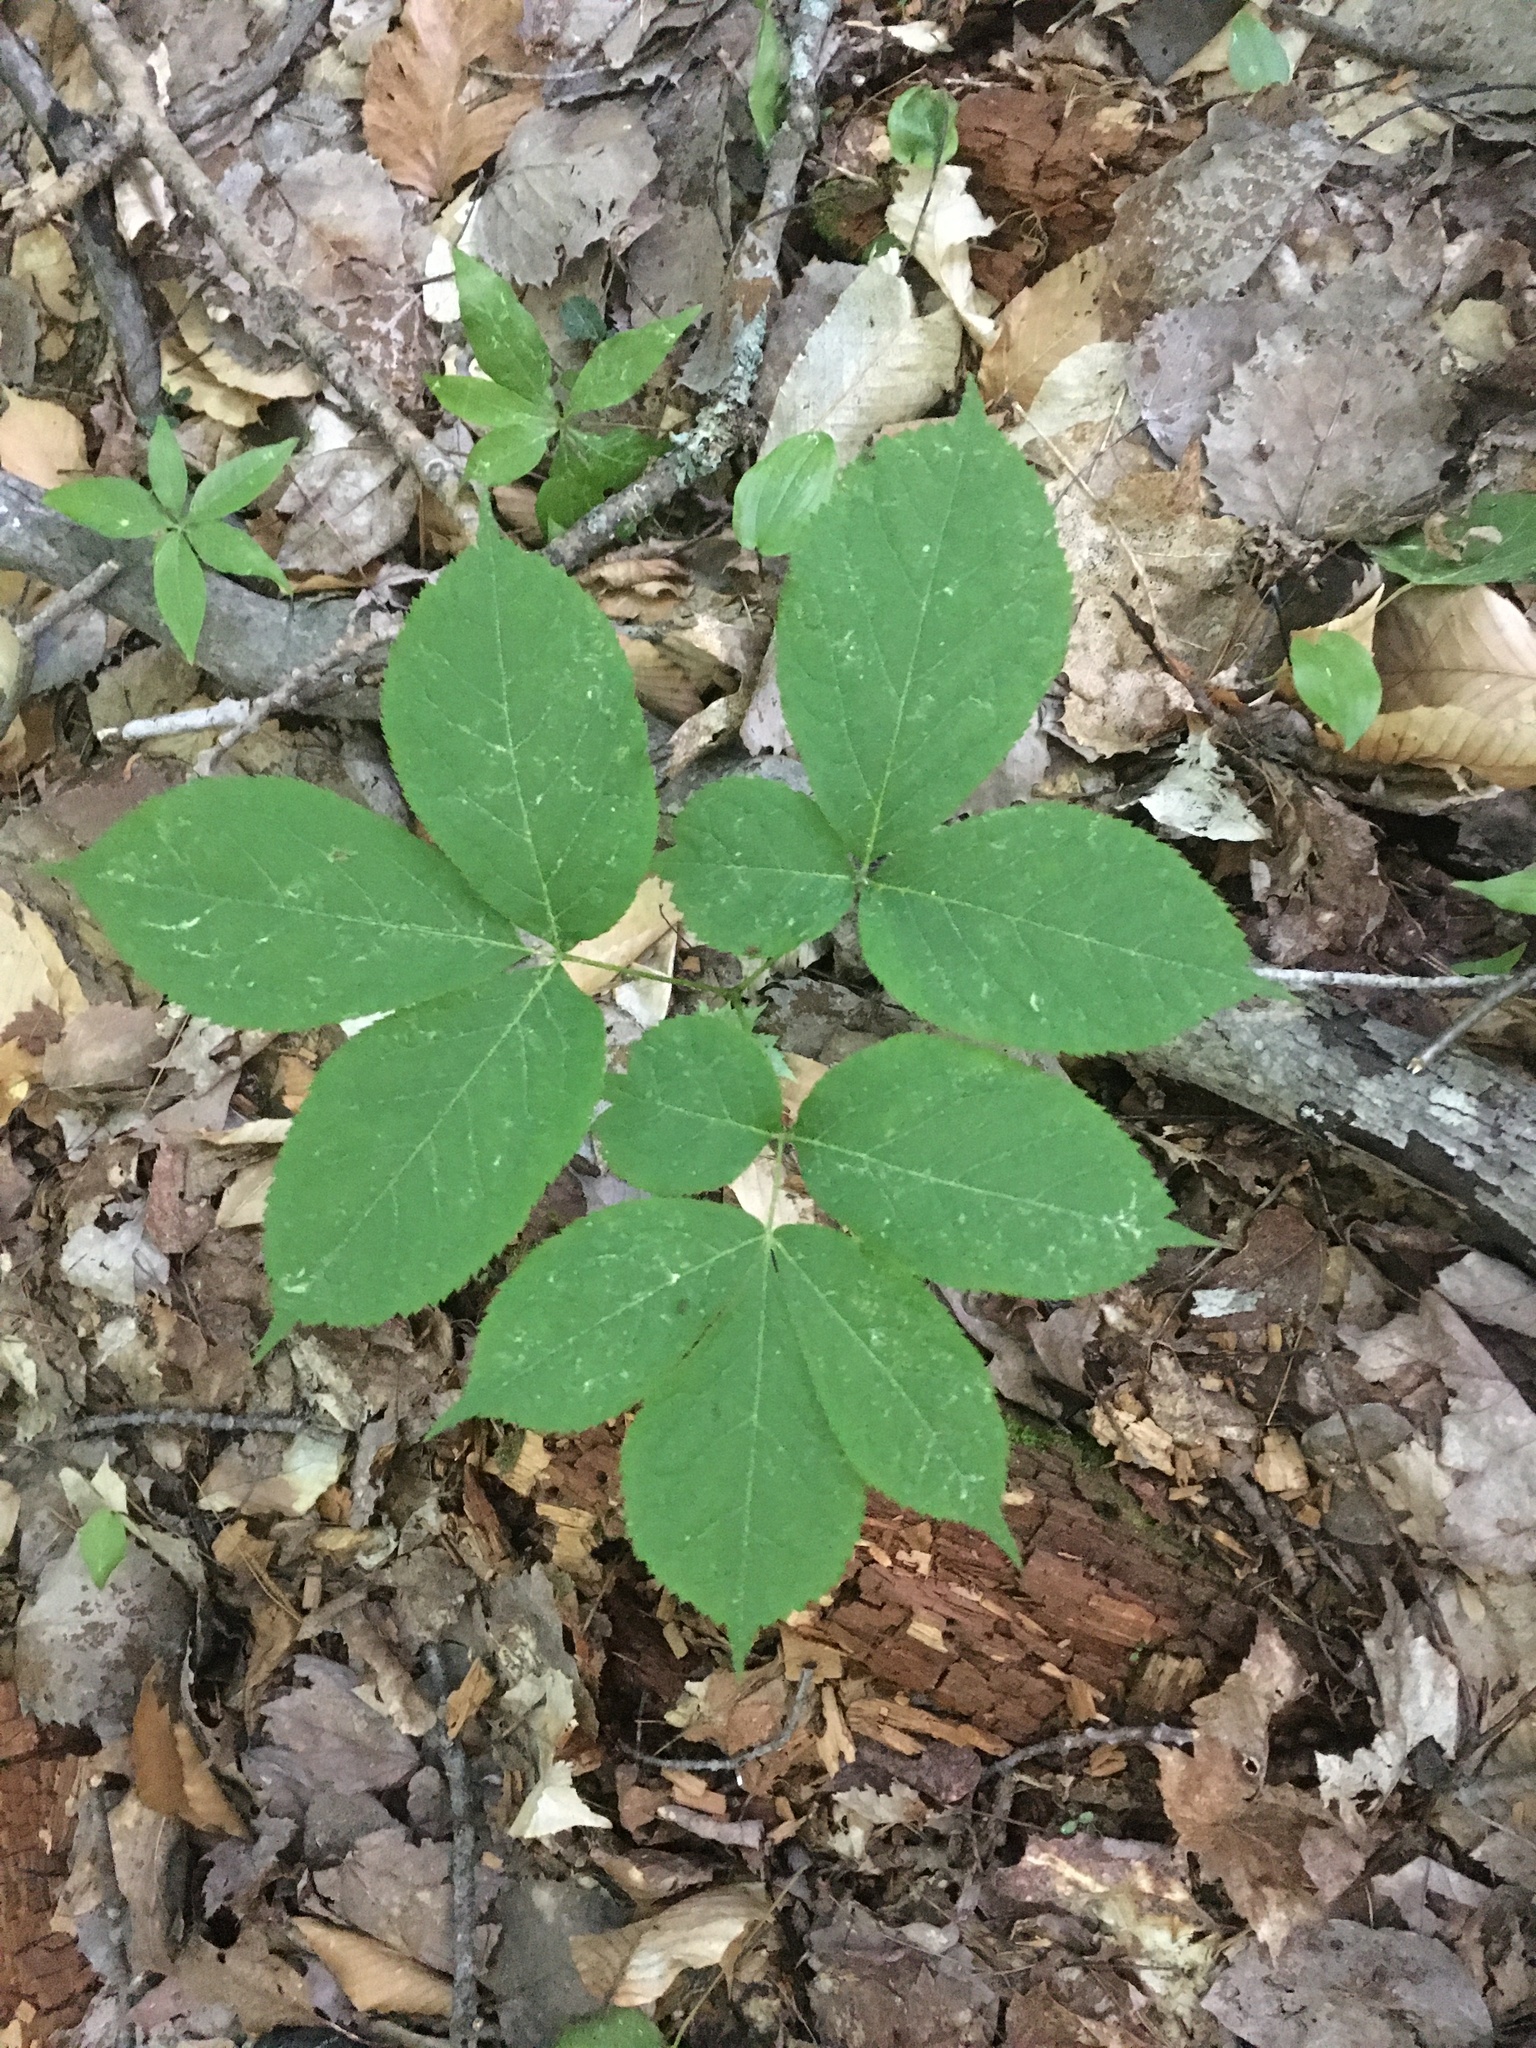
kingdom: Plantae
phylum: Tracheophyta
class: Magnoliopsida
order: Apiales
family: Araliaceae
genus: Aralia
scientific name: Aralia nudicaulis
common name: Wild sarsaparilla
